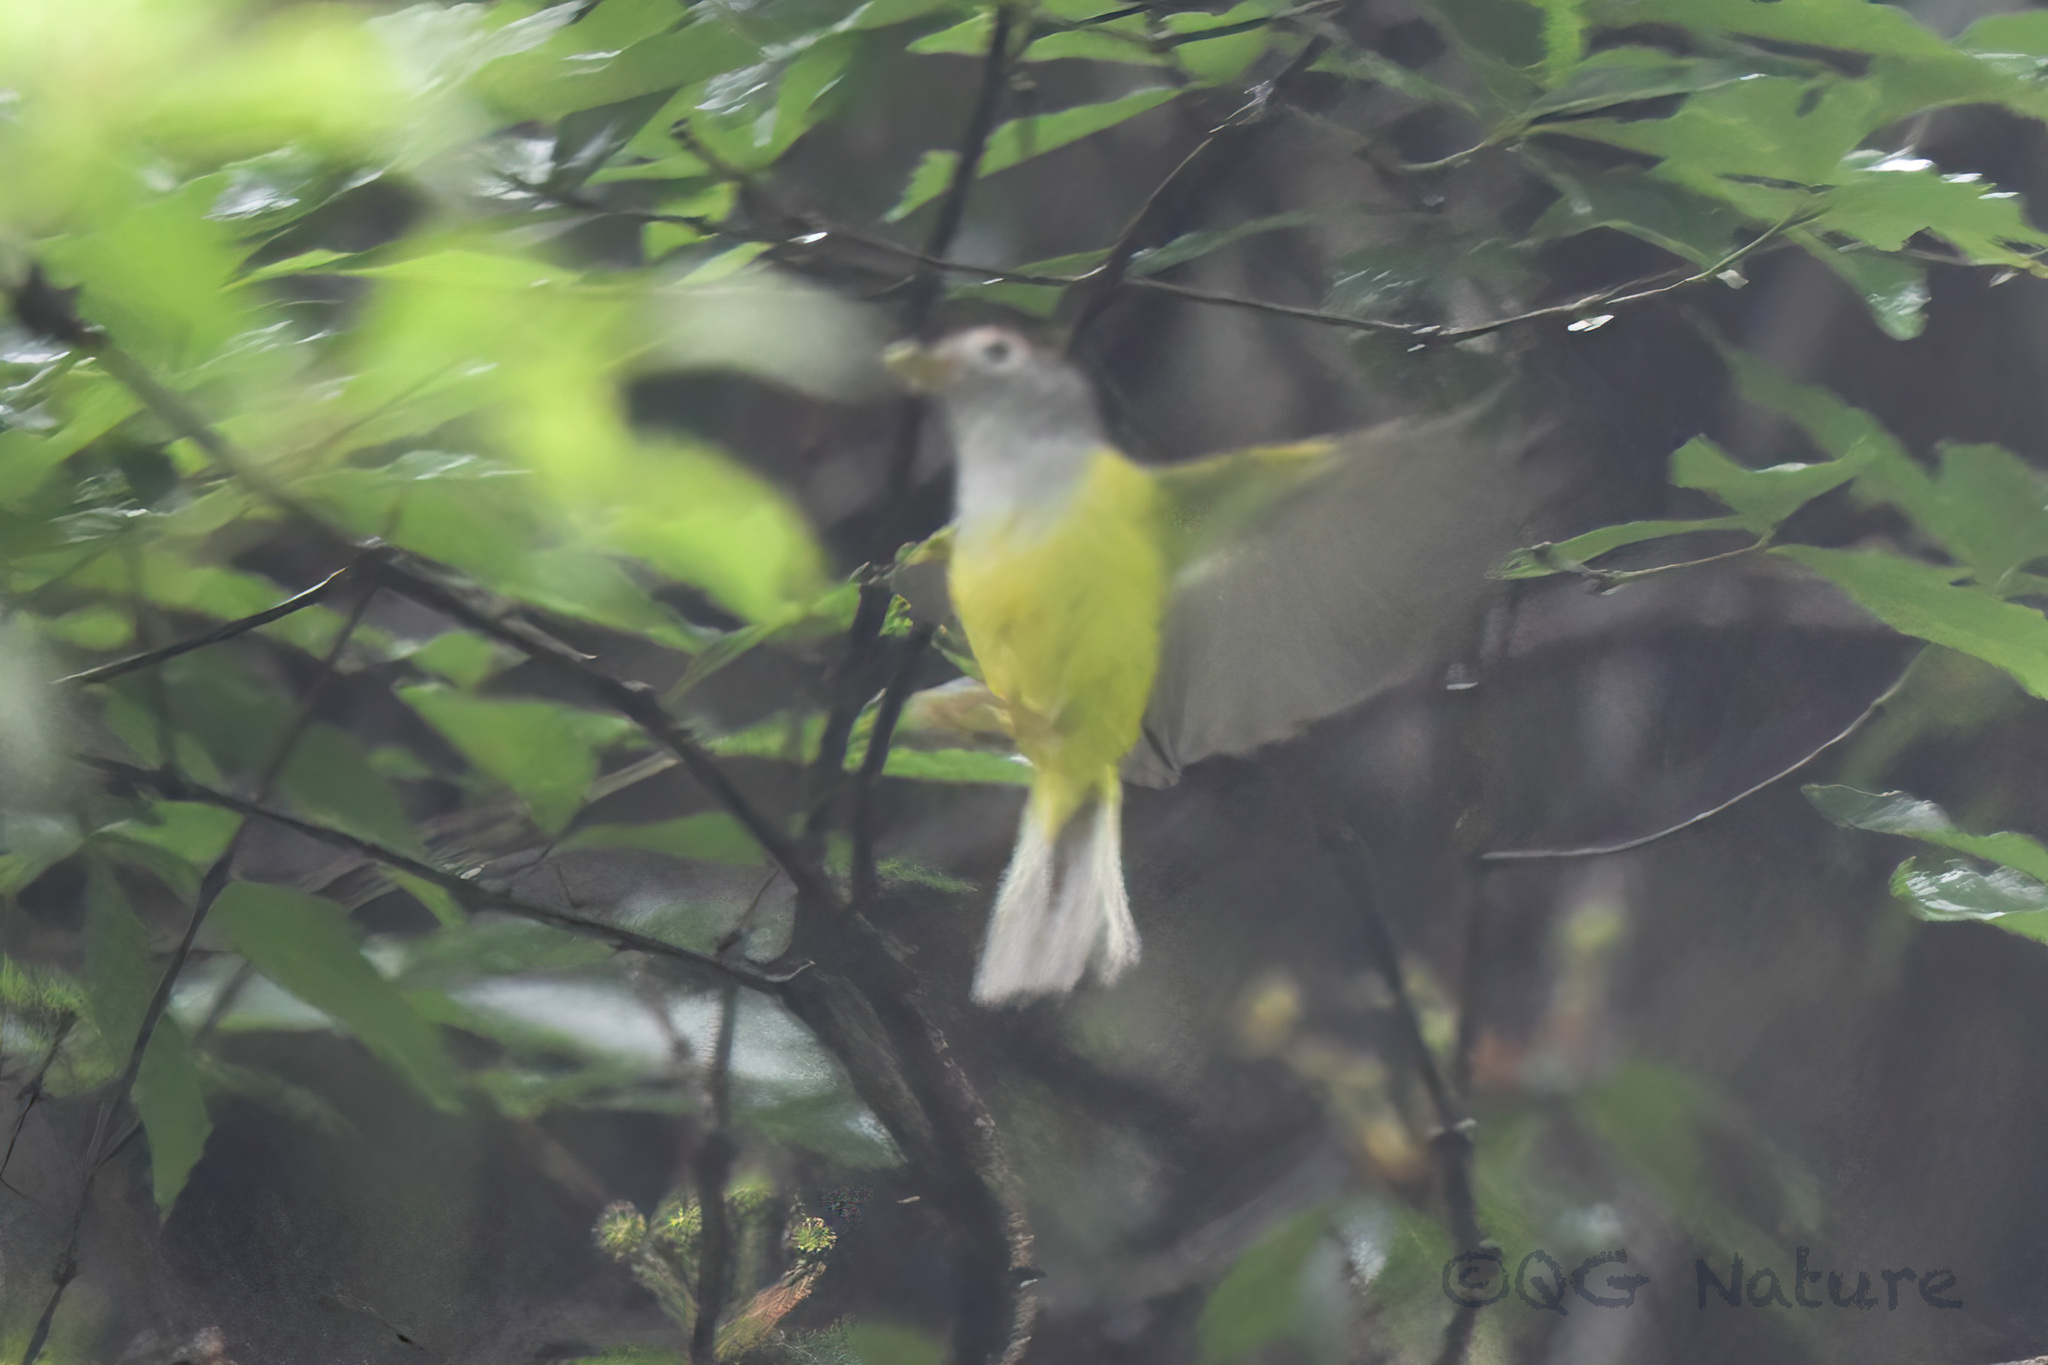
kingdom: Animalia
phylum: Chordata
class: Aves
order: Passeriformes
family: Phylloscopidae
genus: Seicercus
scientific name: Seicercus castaniceps
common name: Chestnut-crowned warbler
